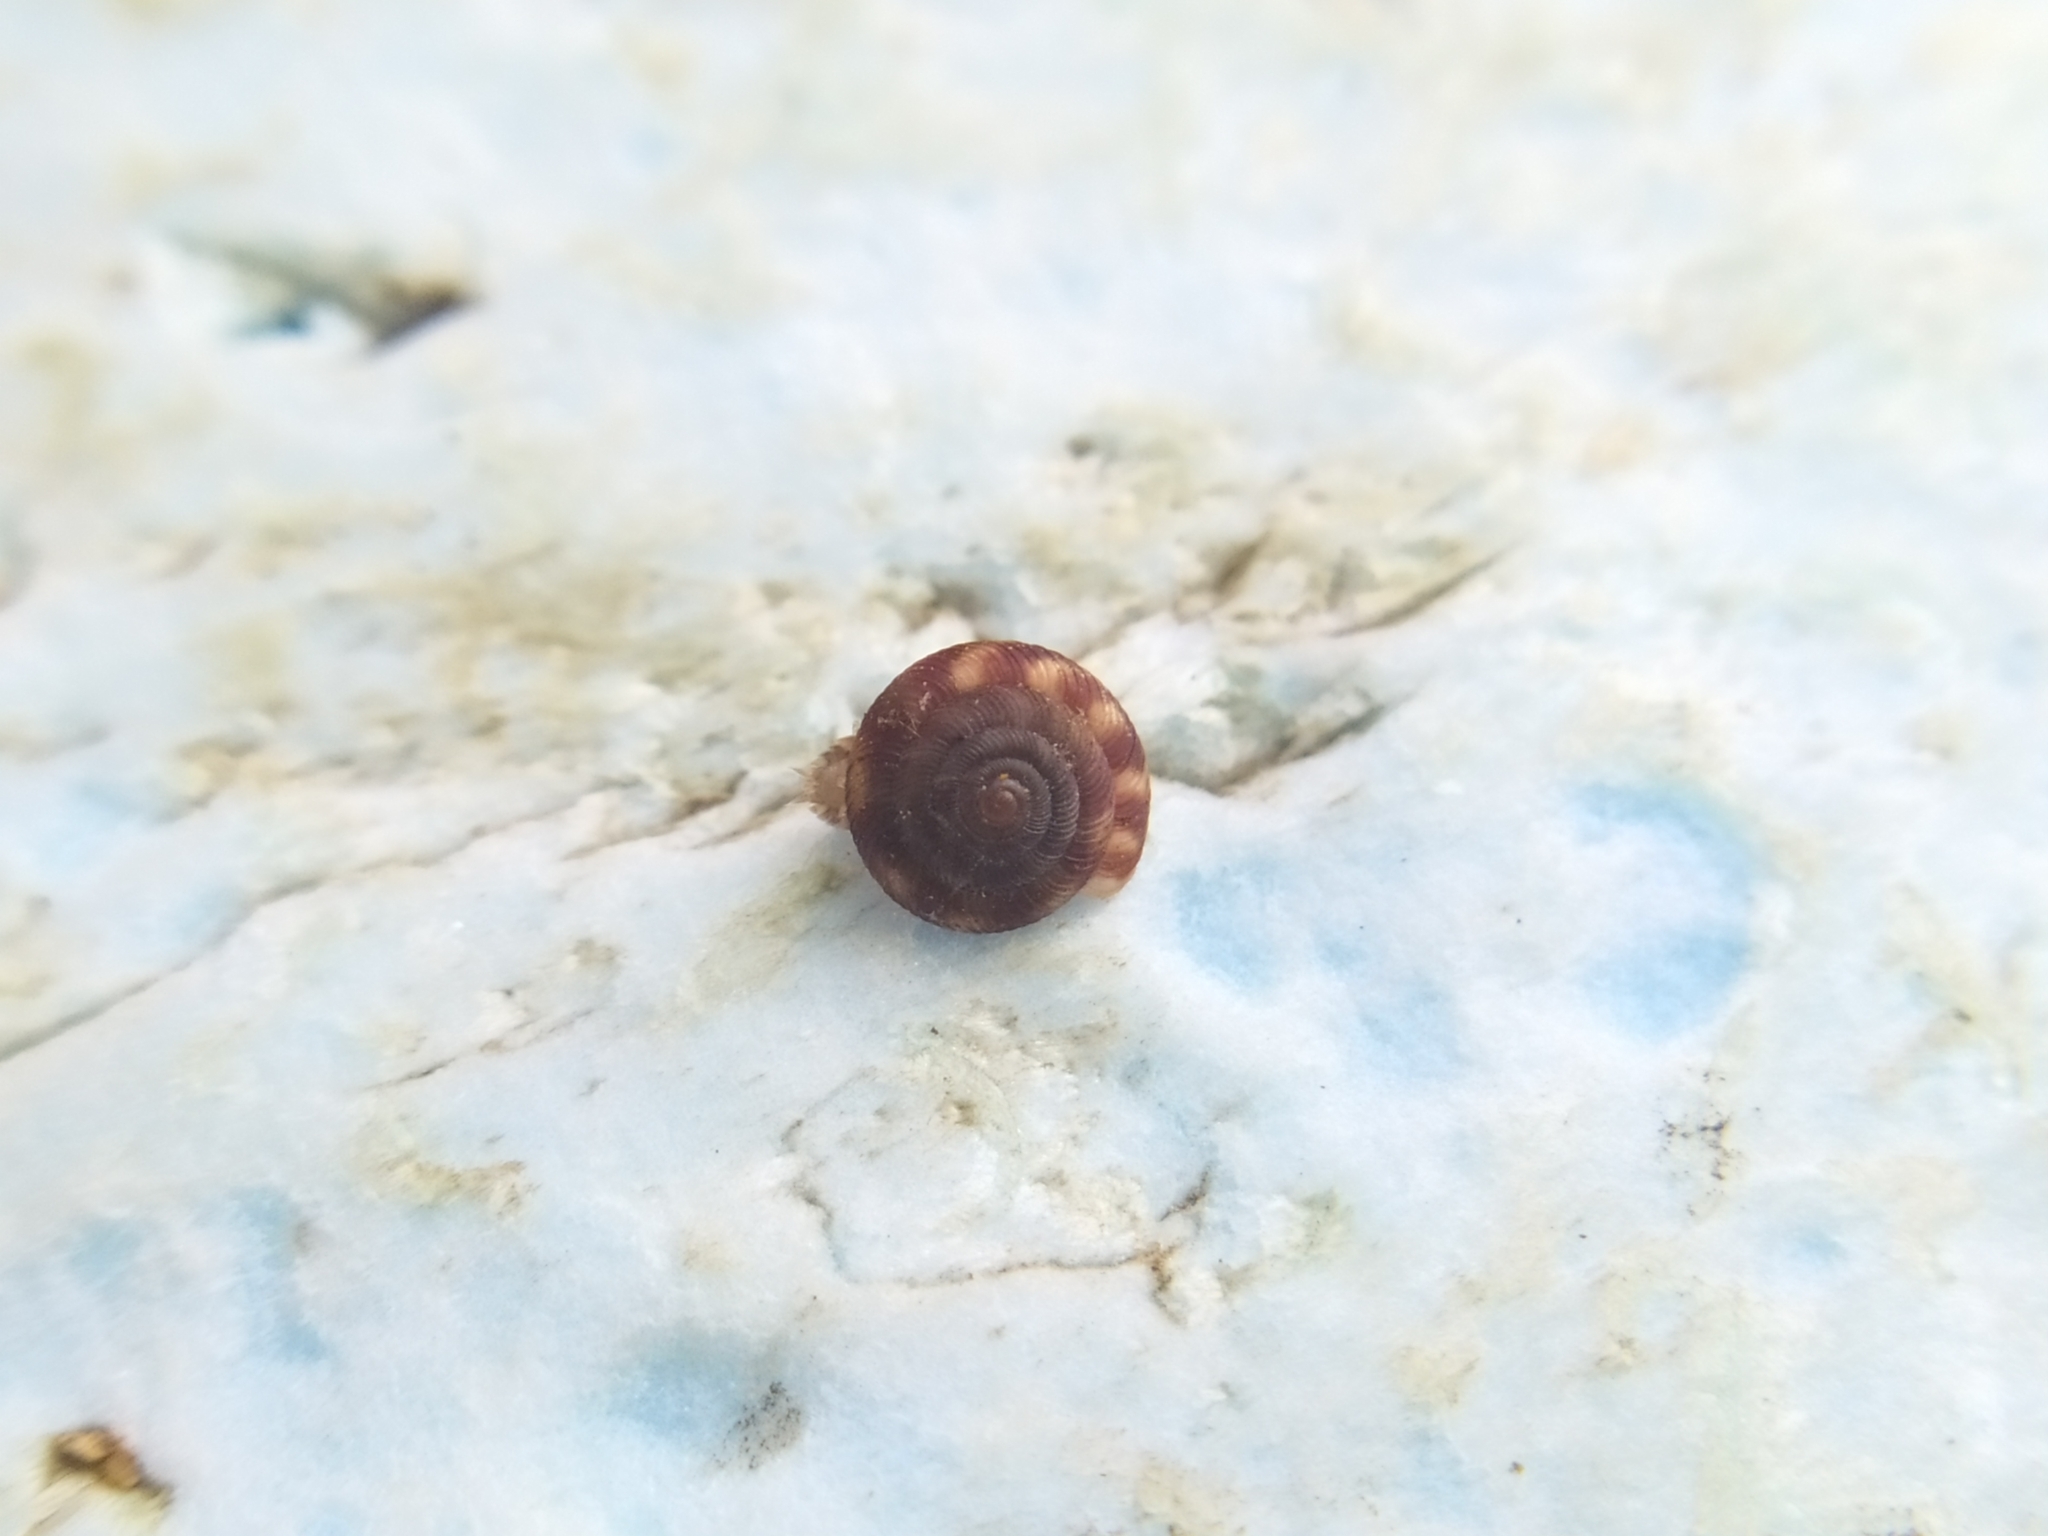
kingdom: Animalia
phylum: Mollusca
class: Gastropoda
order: Stylommatophora
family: Discidae
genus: Discus
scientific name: Discus rotundatus
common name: Rounded snail
